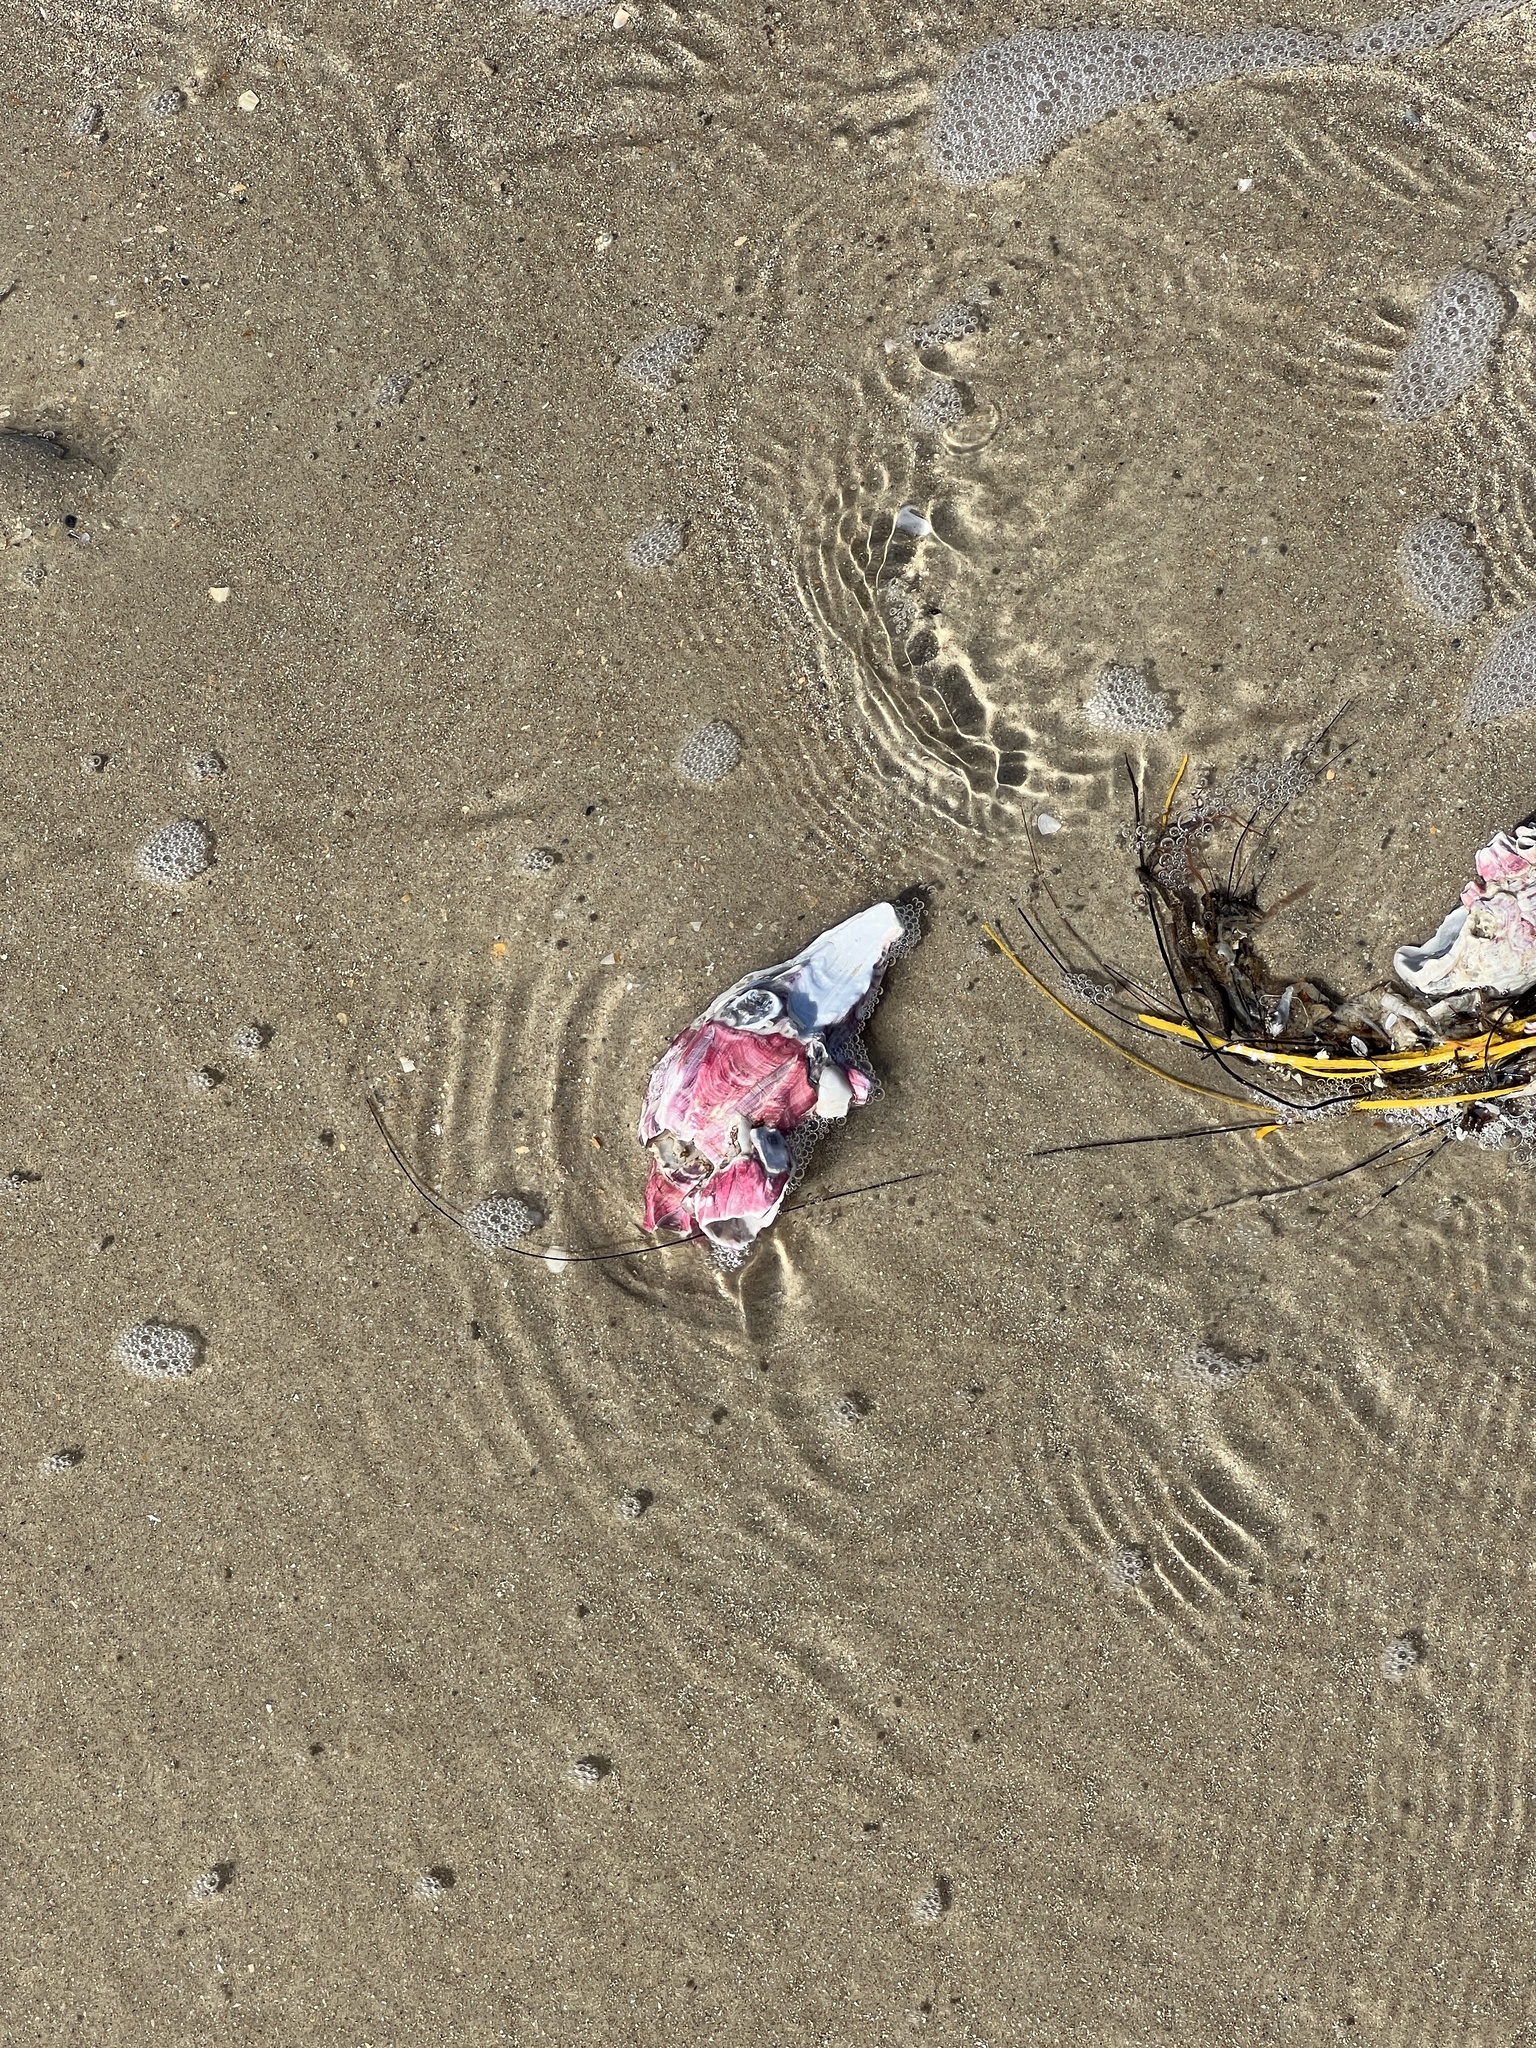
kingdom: Animalia
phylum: Arthropoda
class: Maxillopoda
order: Sessilia
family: Balanidae
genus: Megabalanus
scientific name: Megabalanus tintinnabulum
